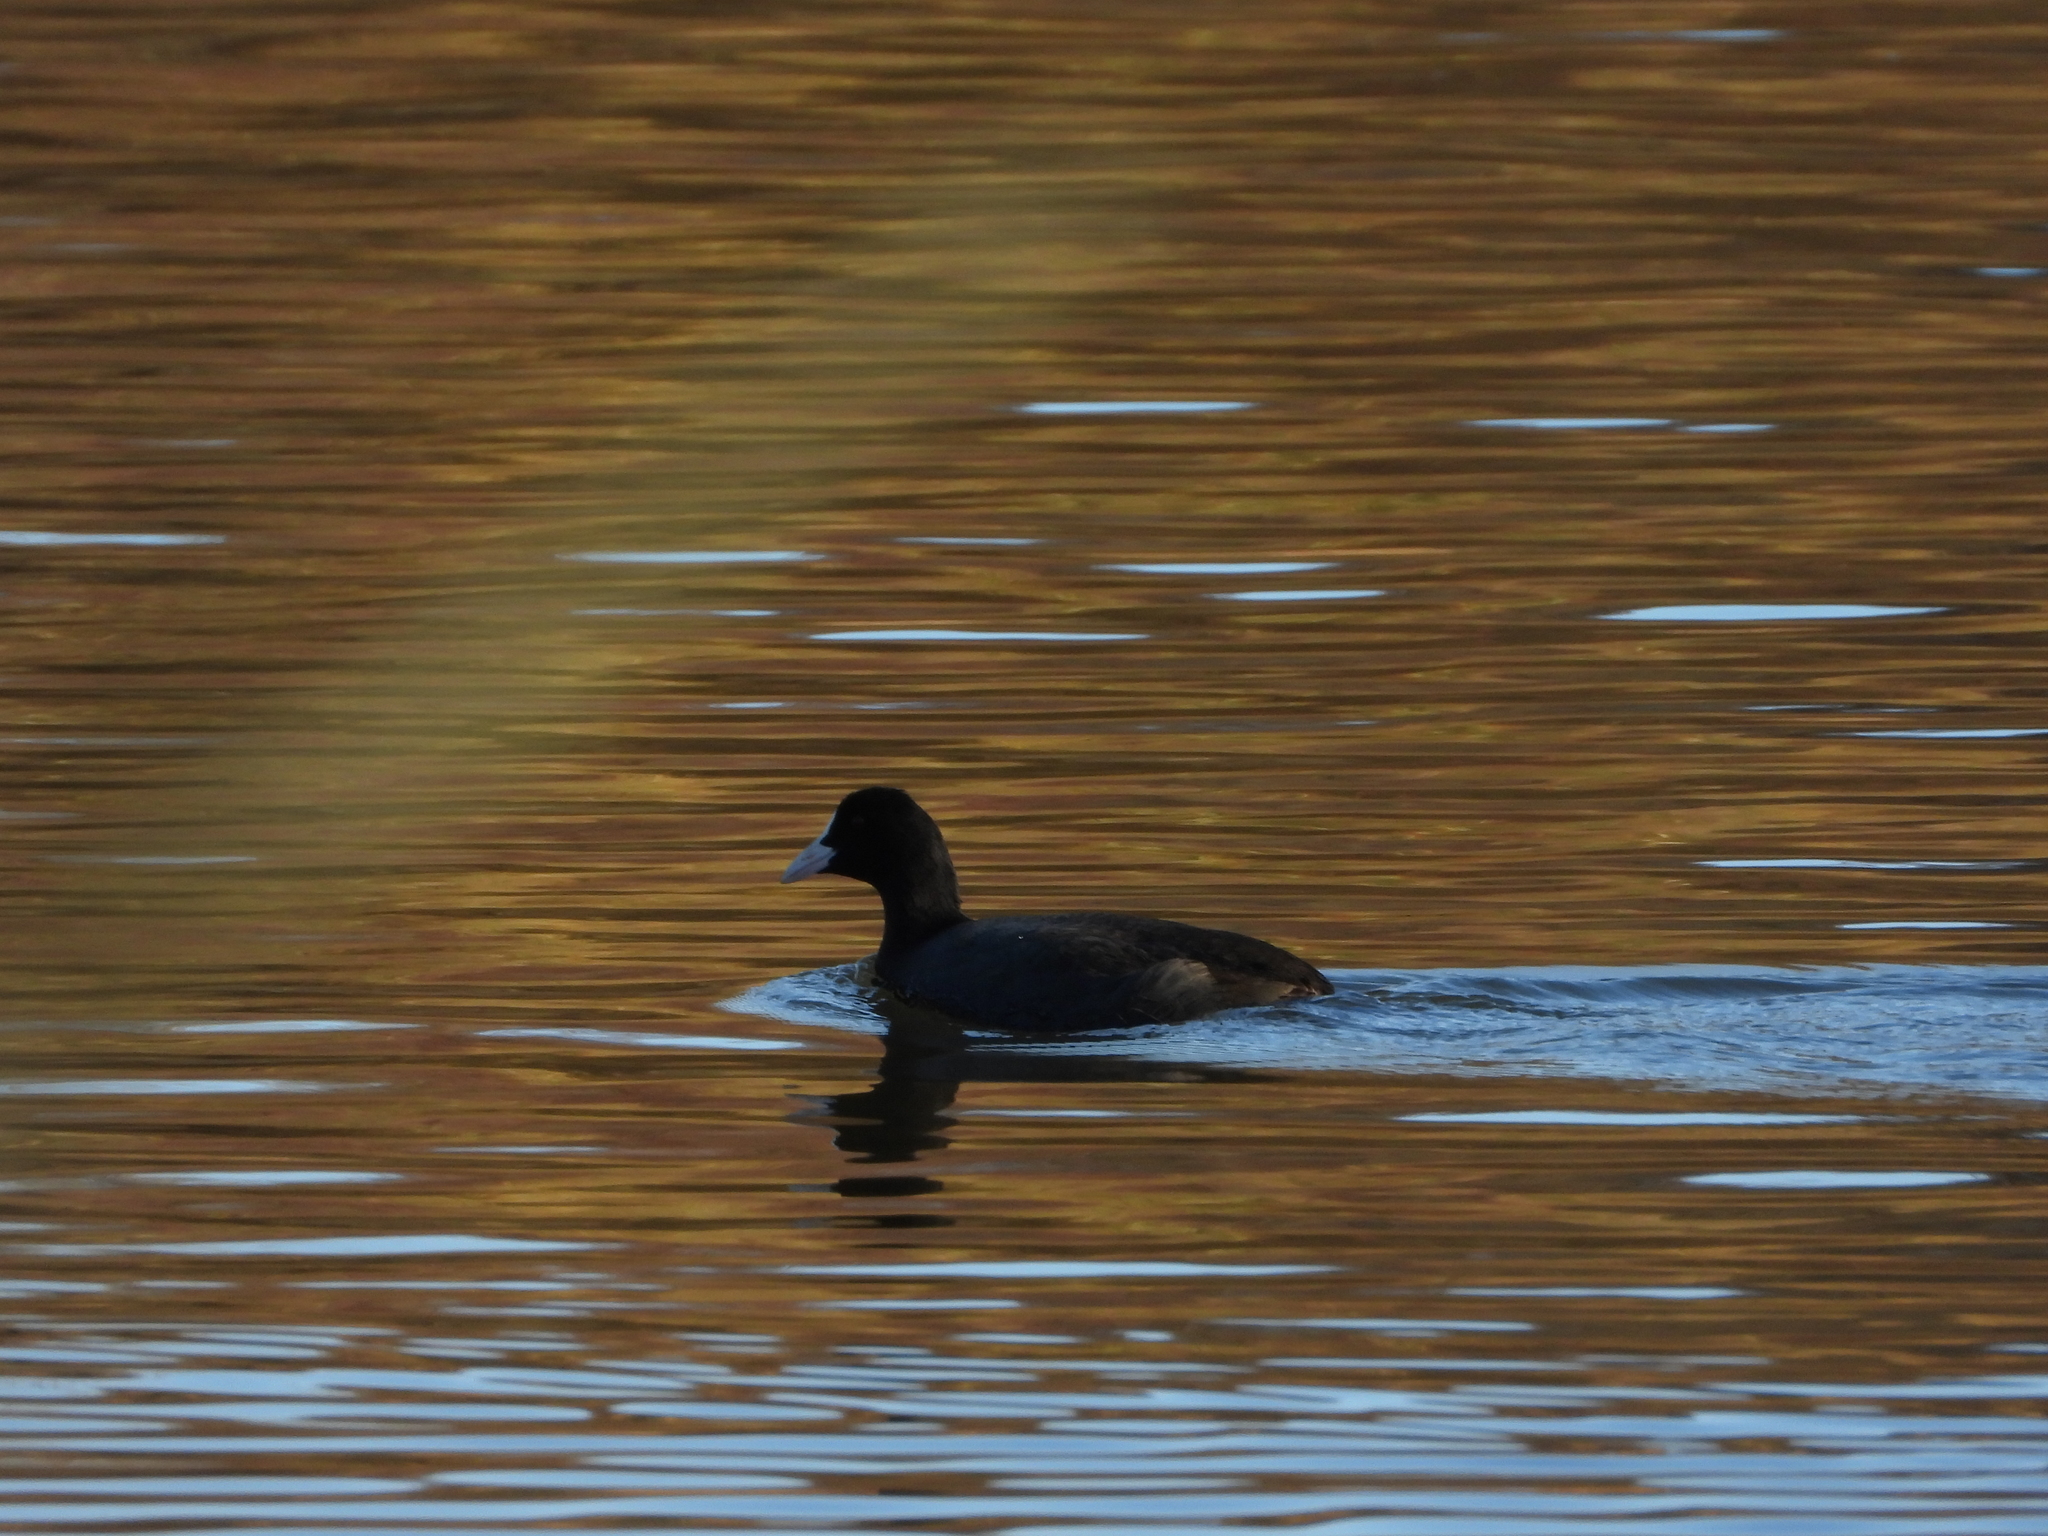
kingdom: Animalia
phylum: Chordata
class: Aves
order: Gruiformes
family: Rallidae
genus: Fulica
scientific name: Fulica atra
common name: Eurasian coot
